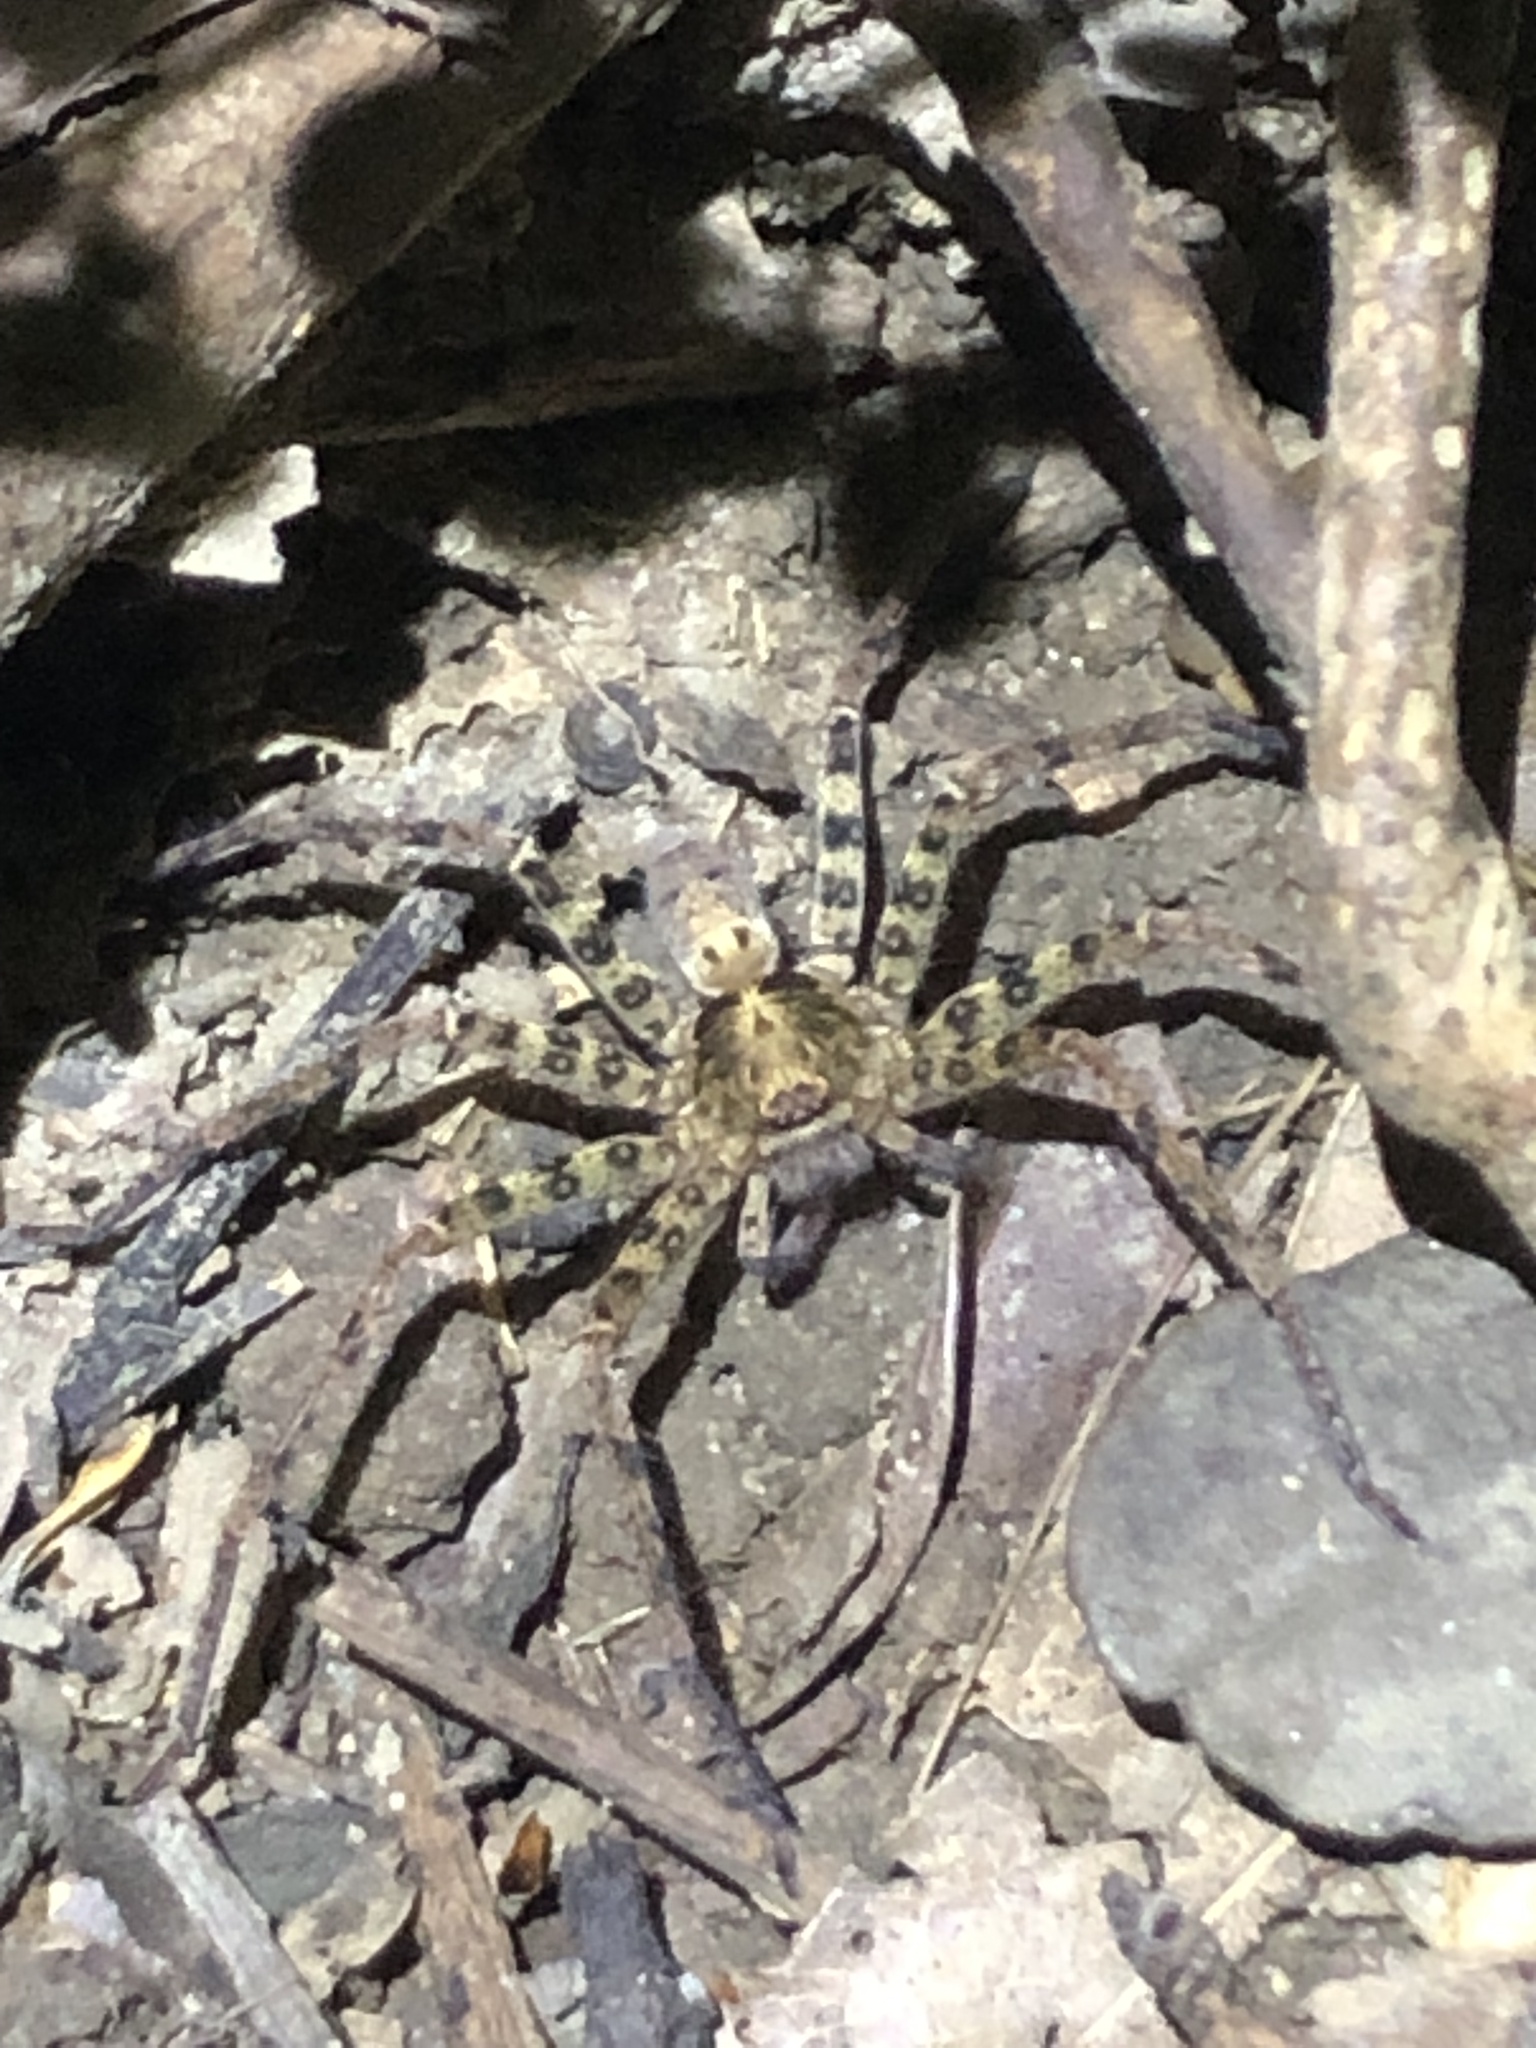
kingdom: Animalia
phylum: Arthropoda
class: Arachnida
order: Araneae
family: Sparassidae
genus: Heteropoda
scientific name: Heteropoda amphora
